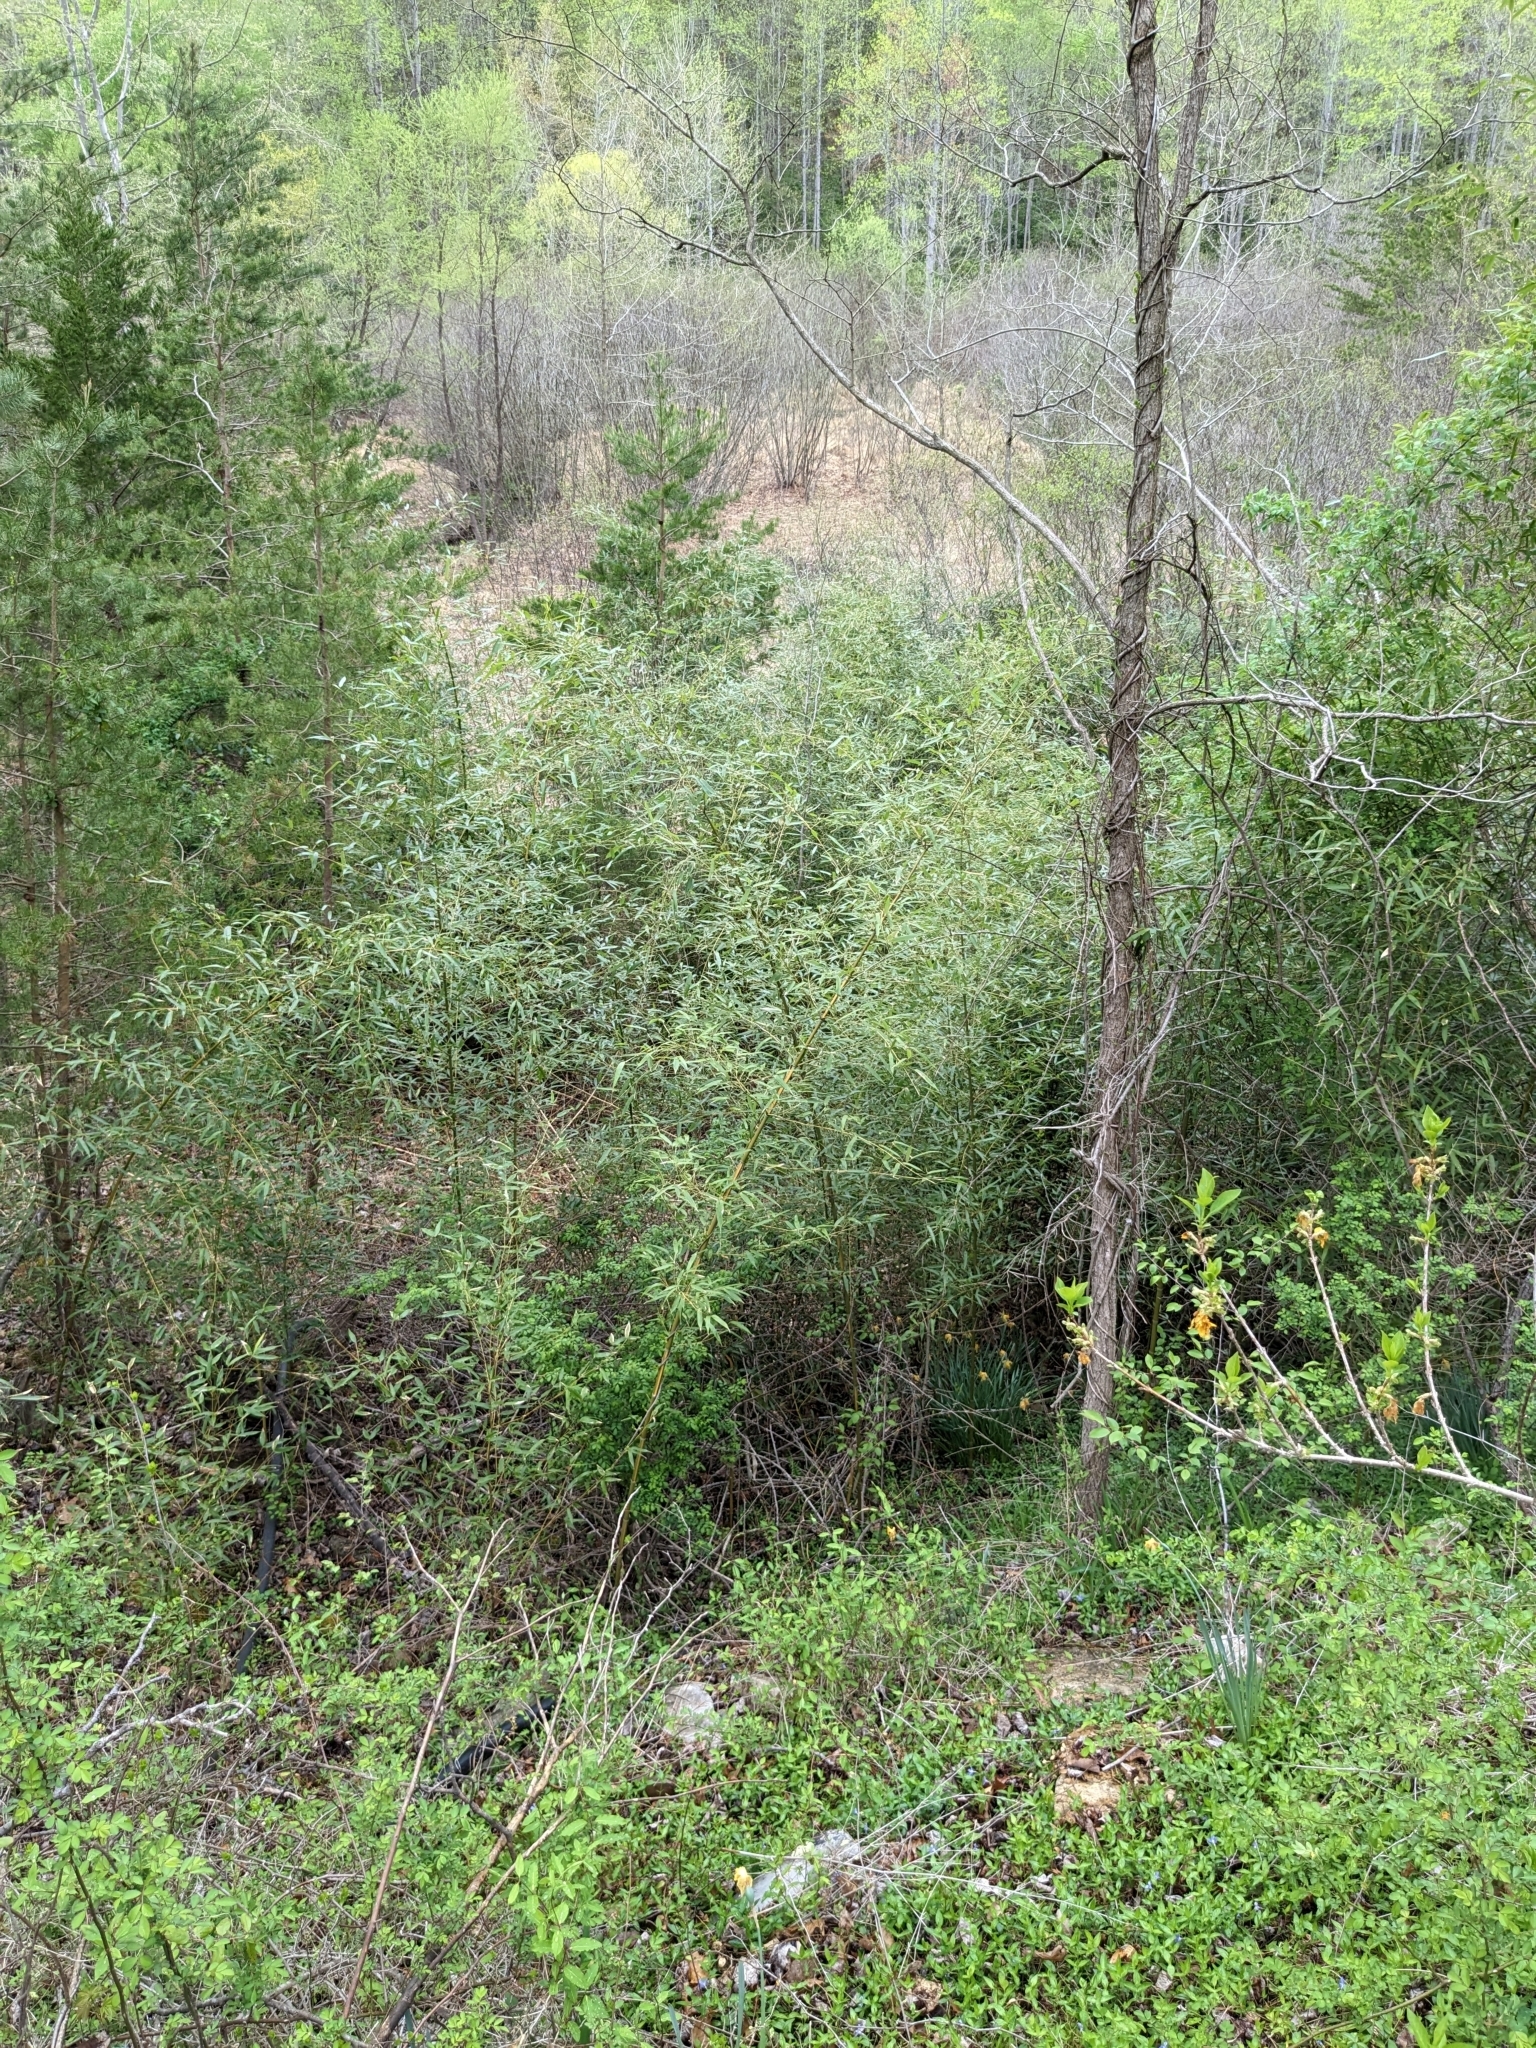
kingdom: Plantae
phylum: Tracheophyta
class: Liliopsida
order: Poales
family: Poaceae
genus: Phyllostachys
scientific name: Phyllostachys aureosulcata
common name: Yellow groove bamboo
